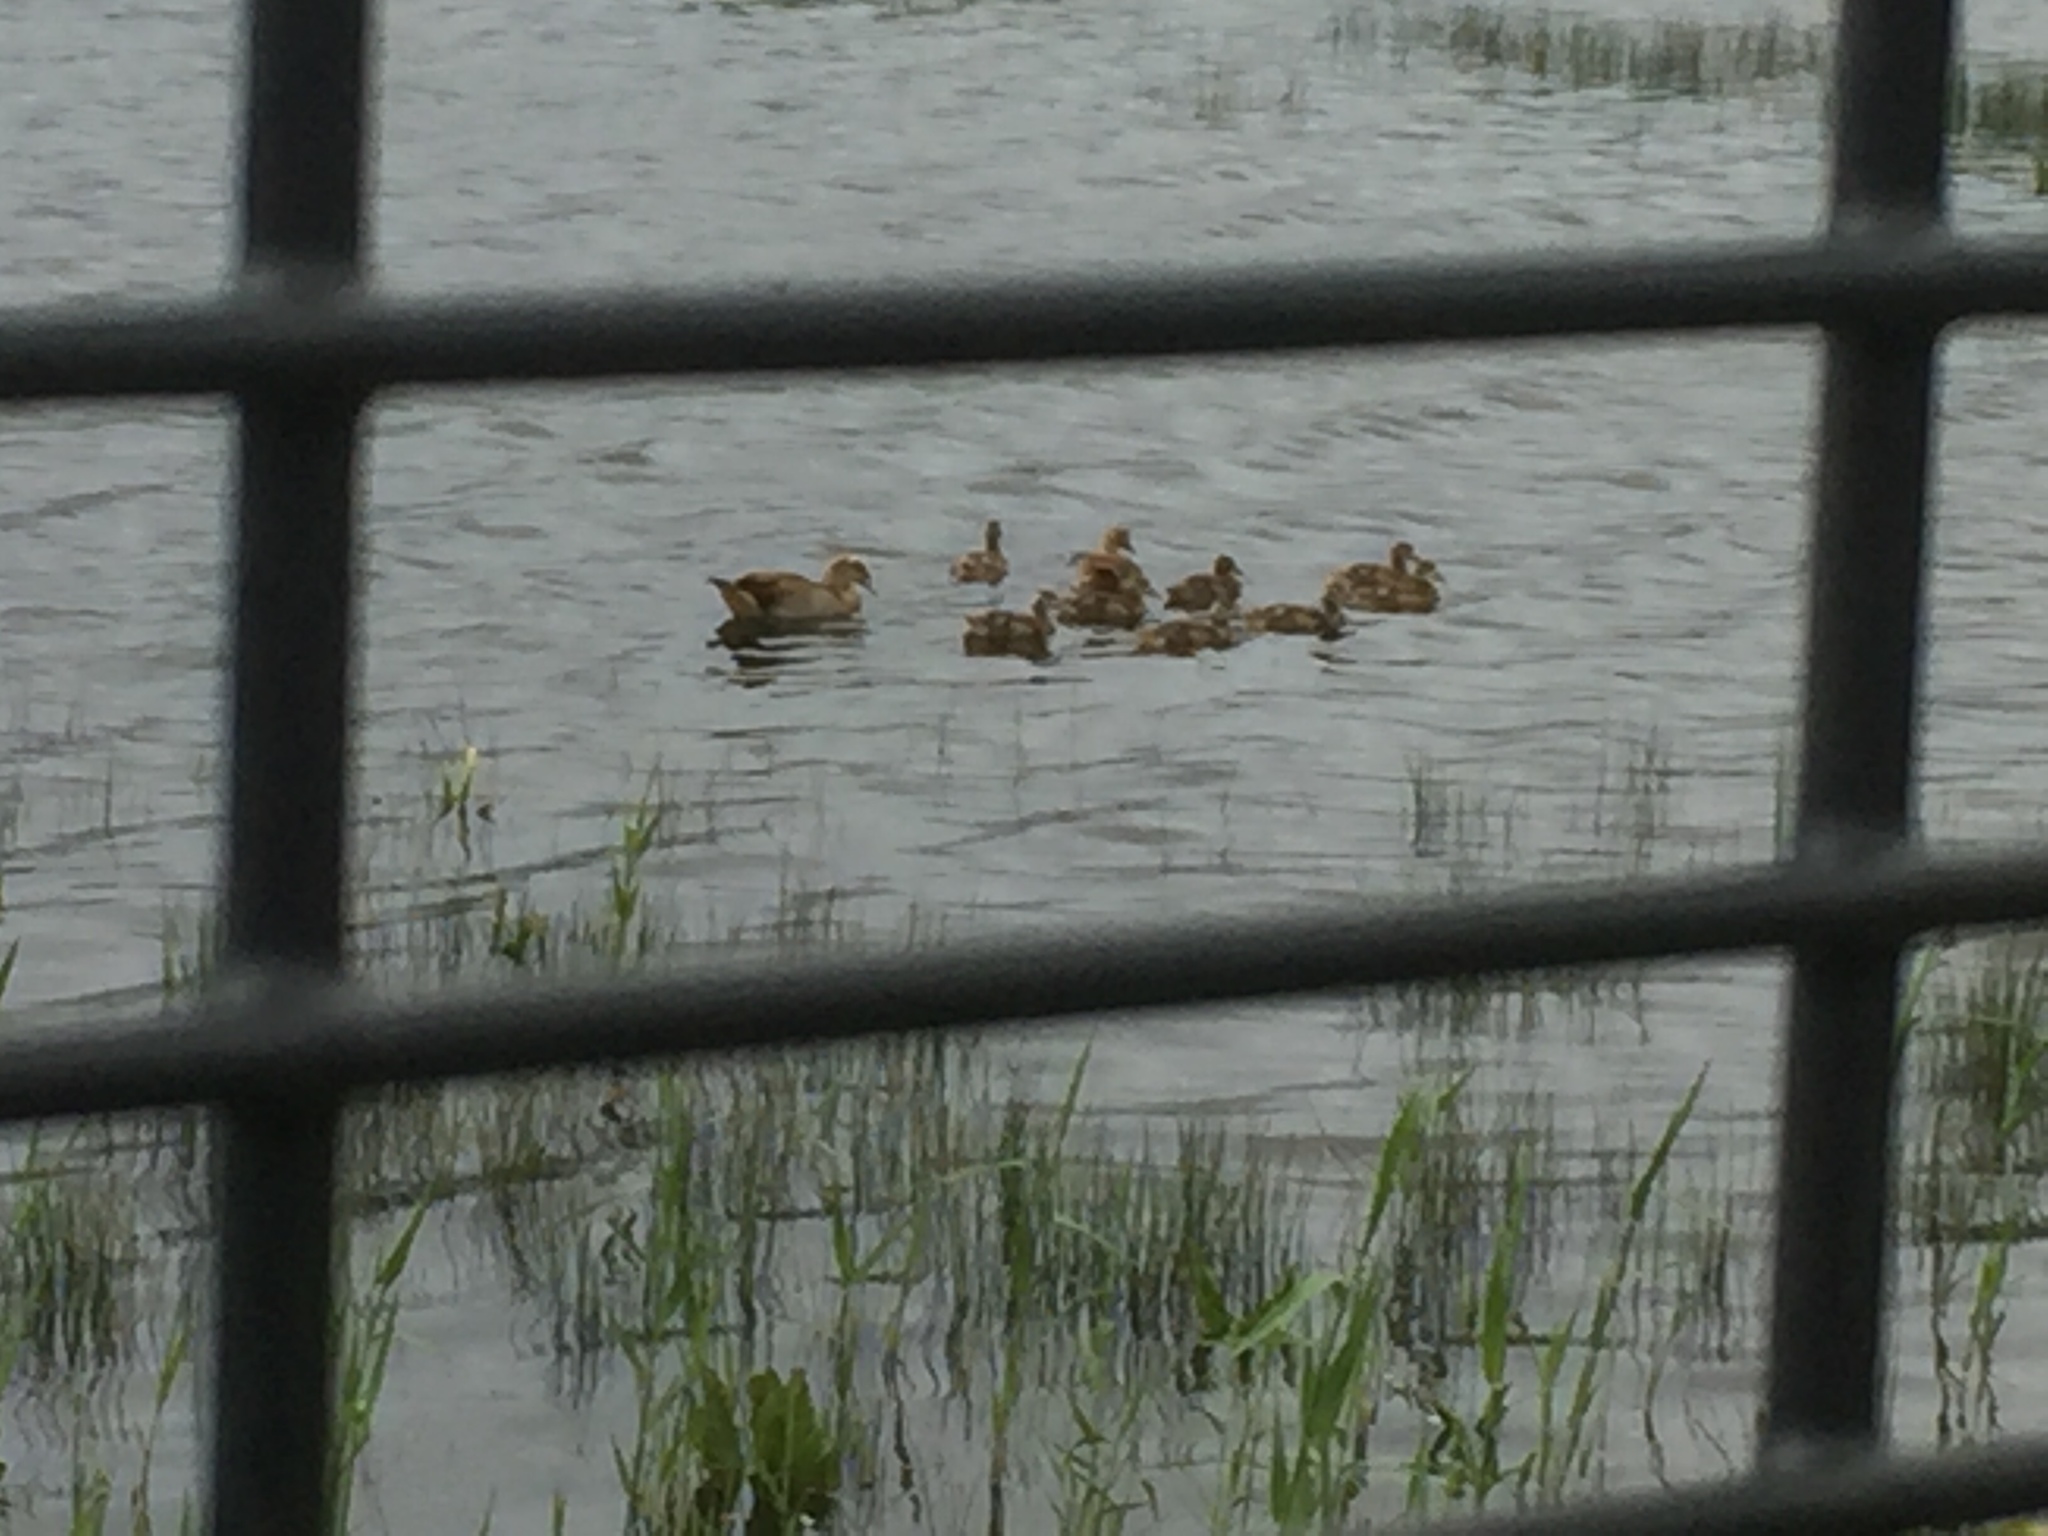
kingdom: Animalia
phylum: Chordata
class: Aves
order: Anseriformes
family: Anatidae
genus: Alopochen
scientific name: Alopochen aegyptiaca
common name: Egyptian goose
